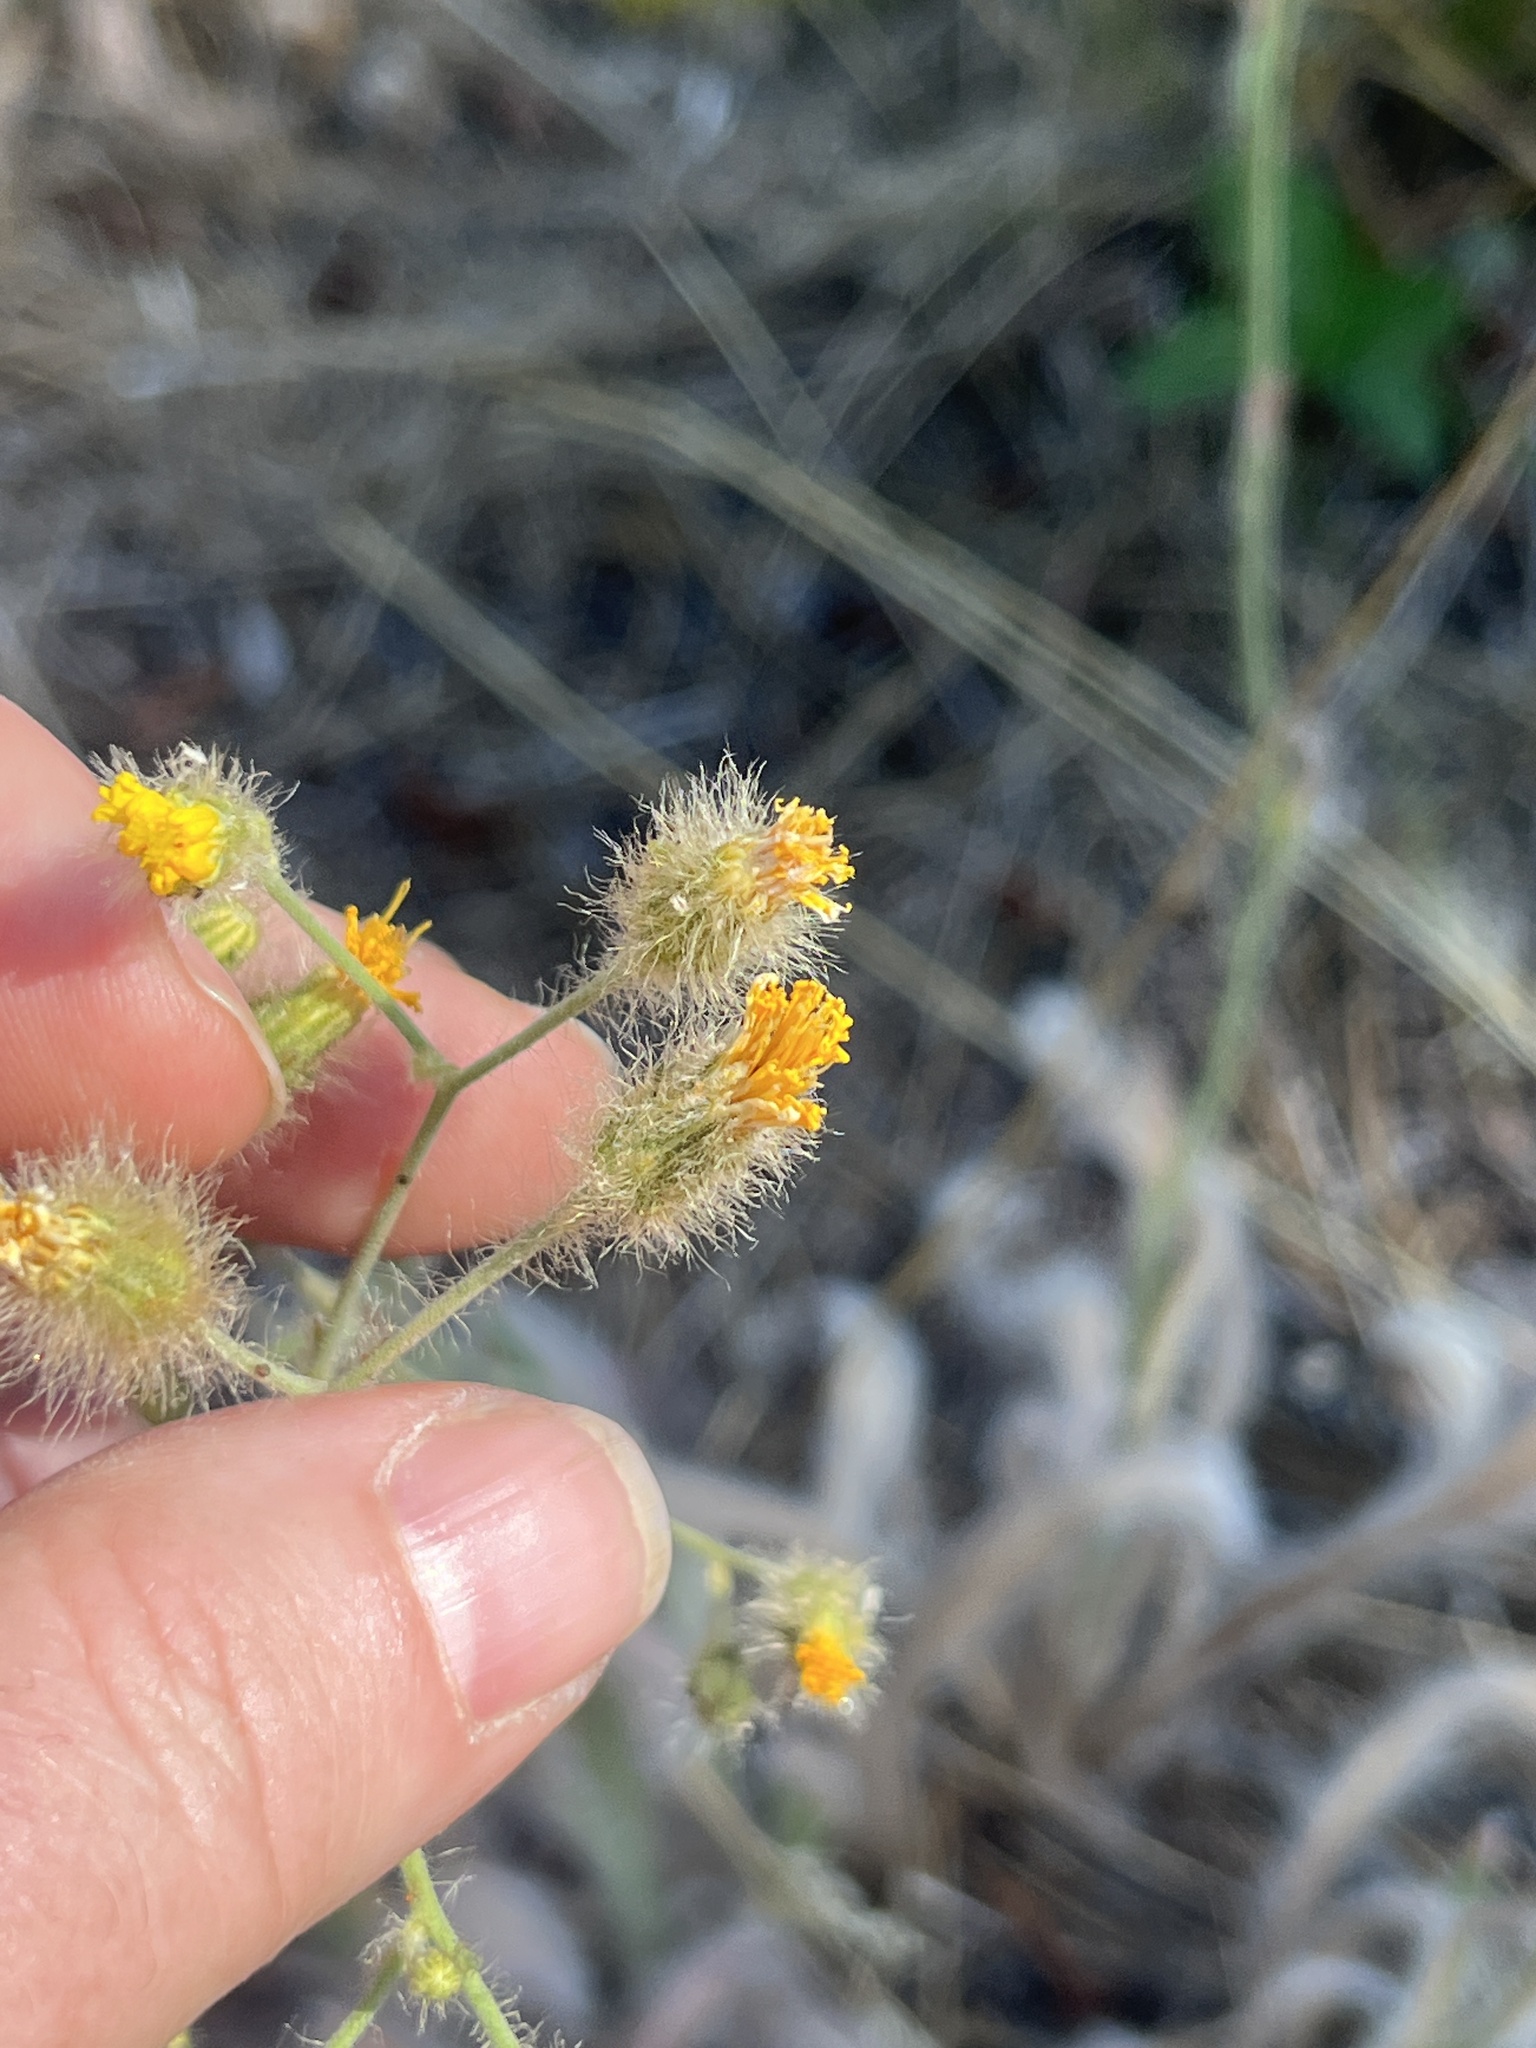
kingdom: Plantae
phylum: Tracheophyta
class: Magnoliopsida
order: Asterales
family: Asteraceae
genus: Hieracium
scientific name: Hieracium scouleri
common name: Hound's-tongue hawkweed
